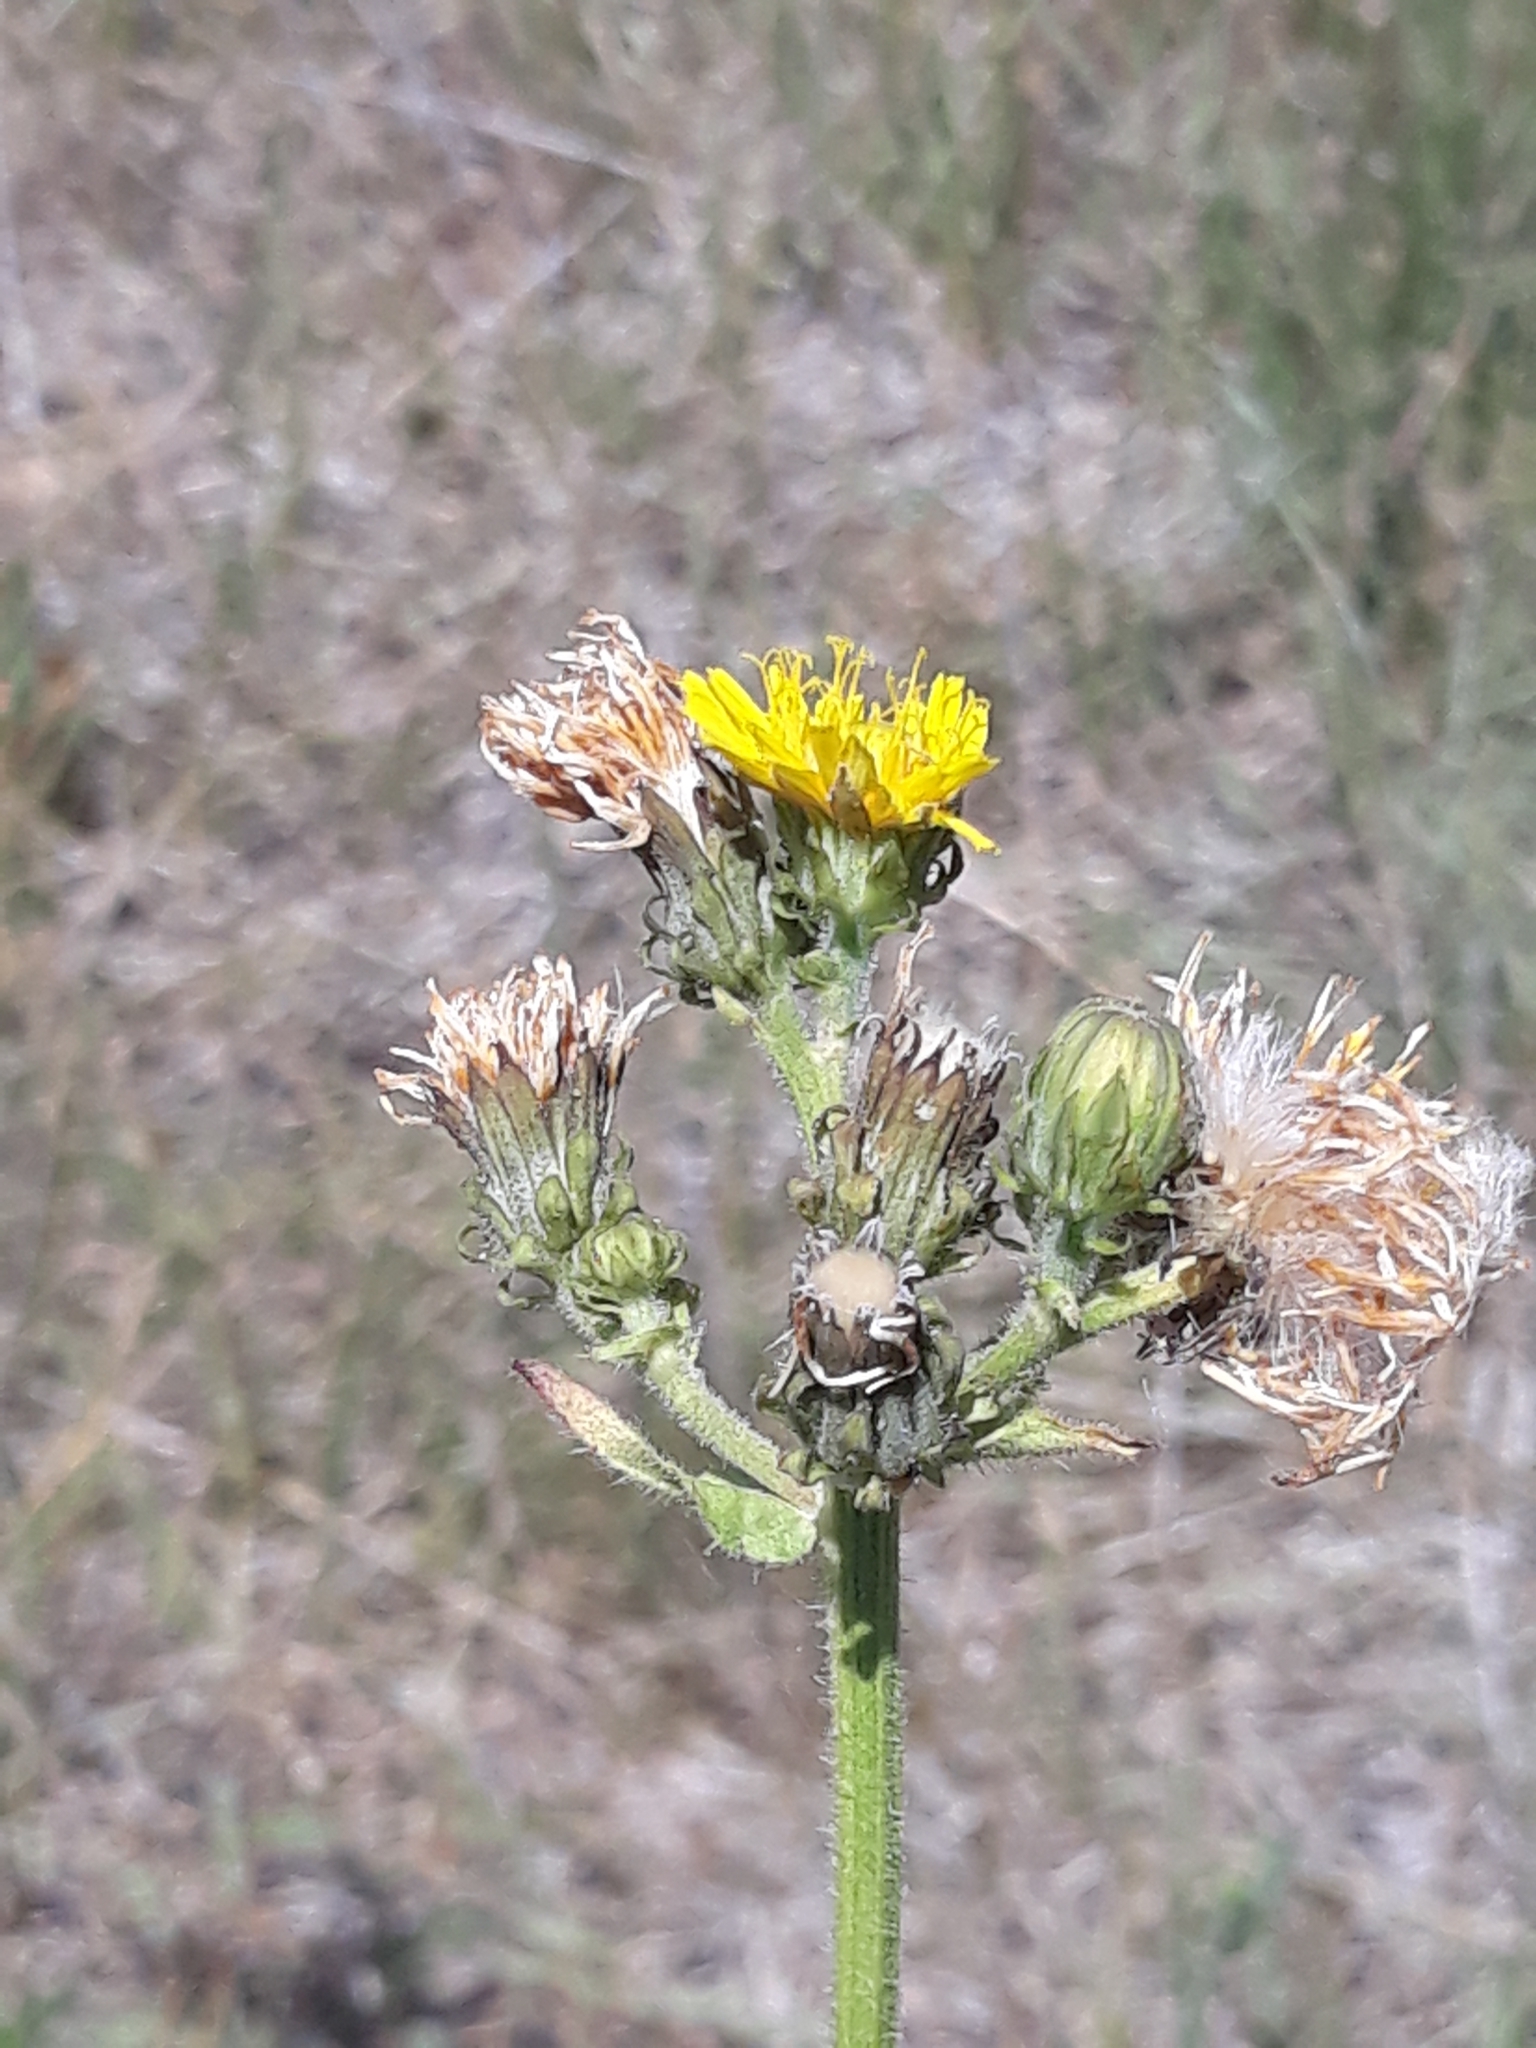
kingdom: Plantae
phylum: Tracheophyta
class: Magnoliopsida
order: Asterales
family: Asteraceae
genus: Picris
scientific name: Picris hieracioides
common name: Hawkweed oxtongue
